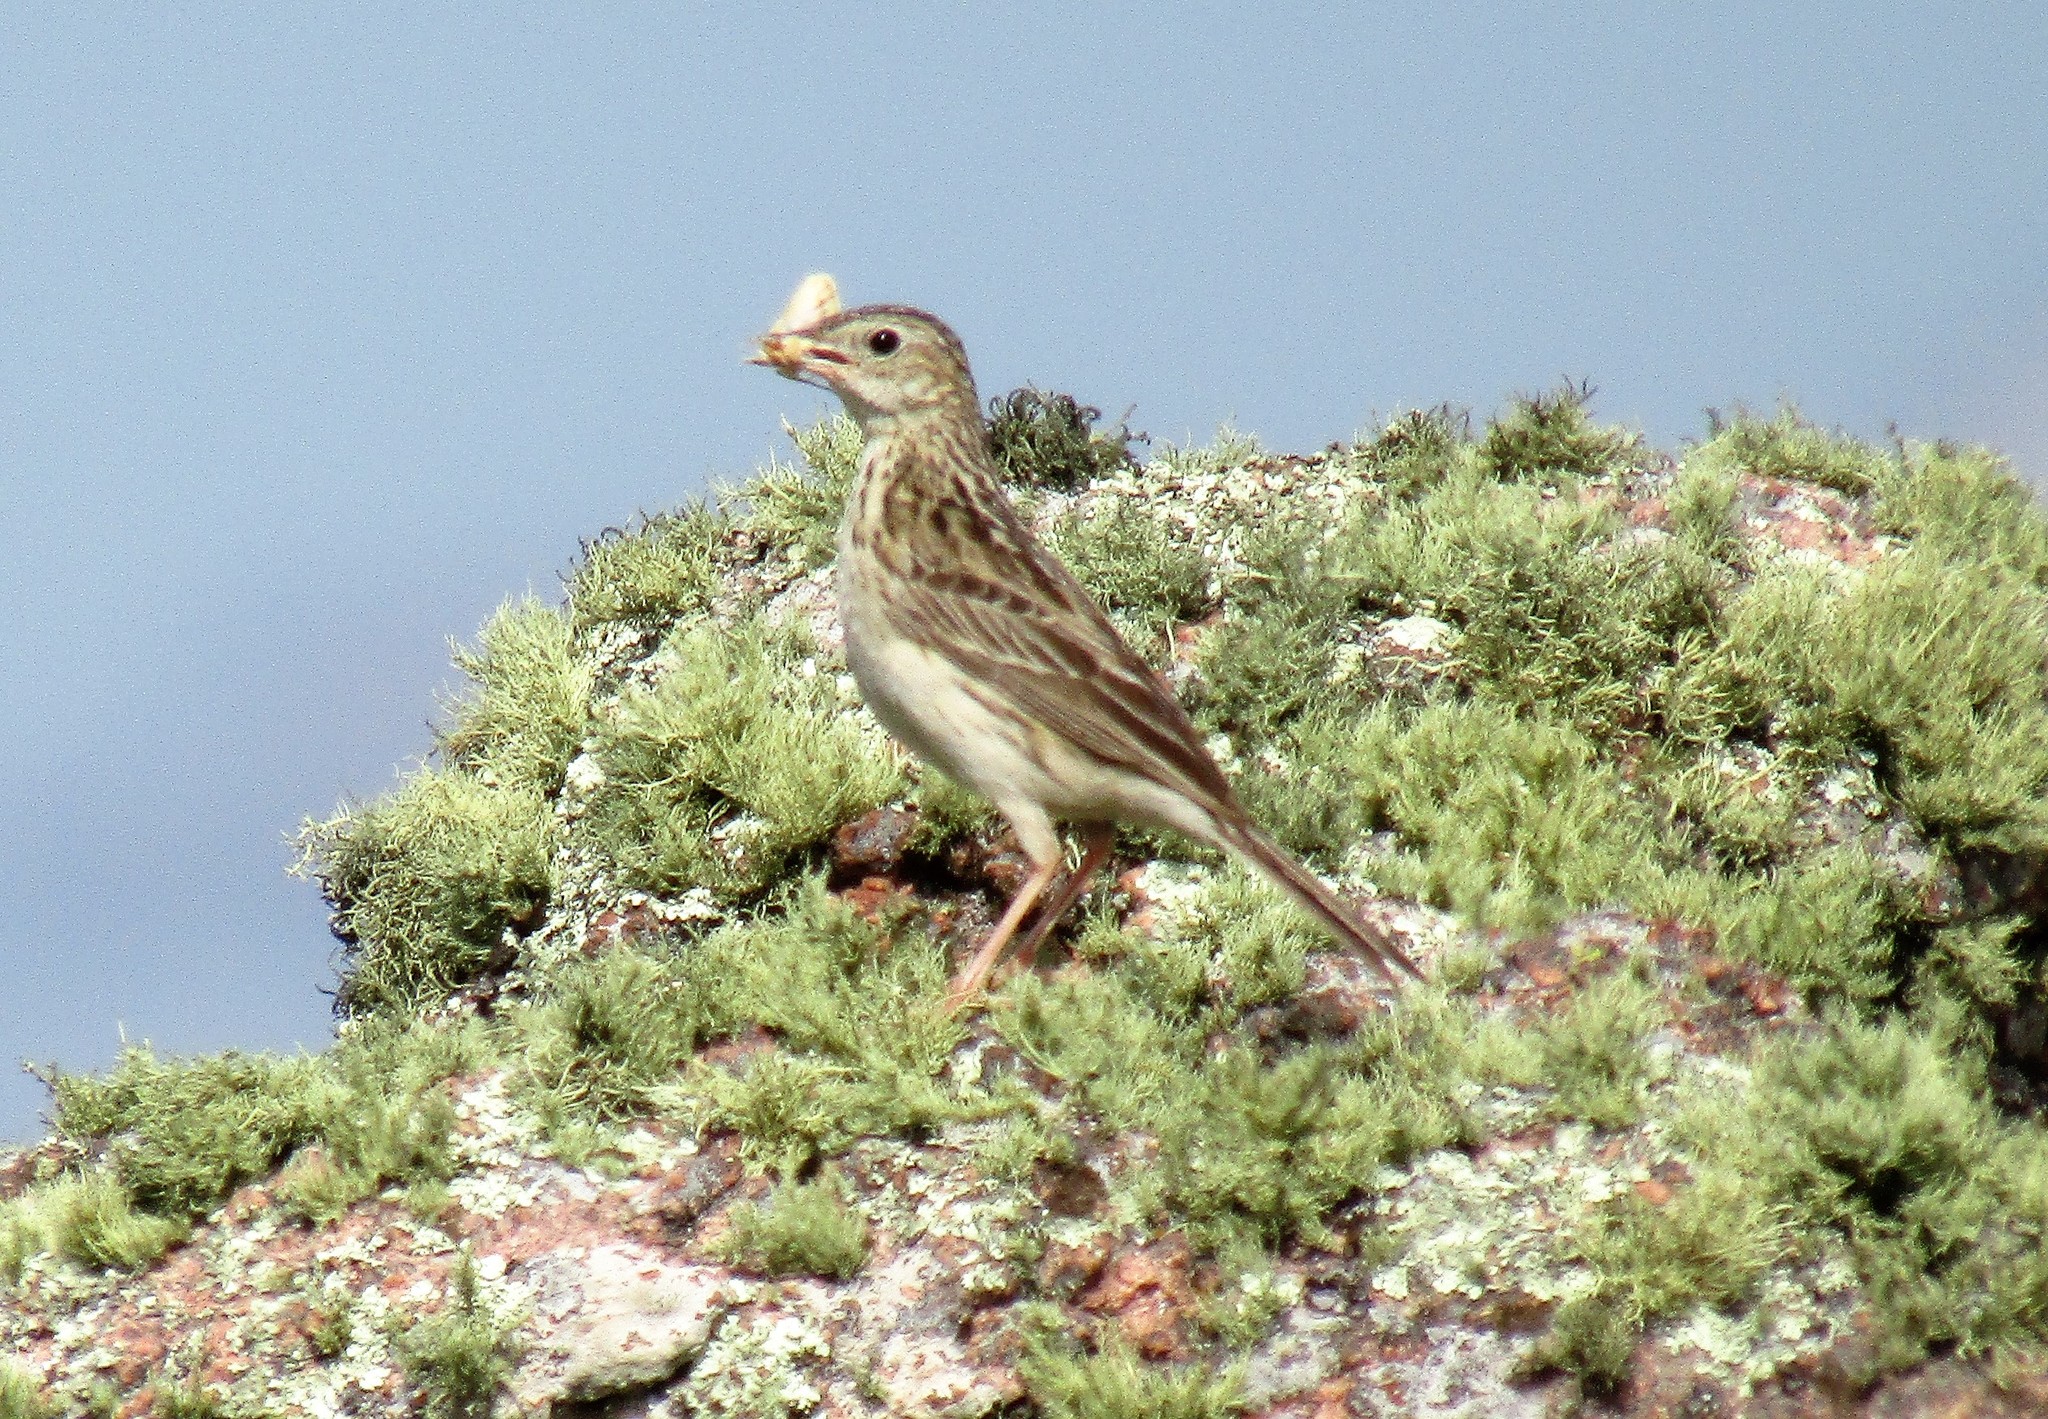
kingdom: Animalia
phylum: Chordata
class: Aves
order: Passeriformes
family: Motacillidae
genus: Anthus
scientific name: Anthus hellmayri
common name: Hellmayr's pipit
